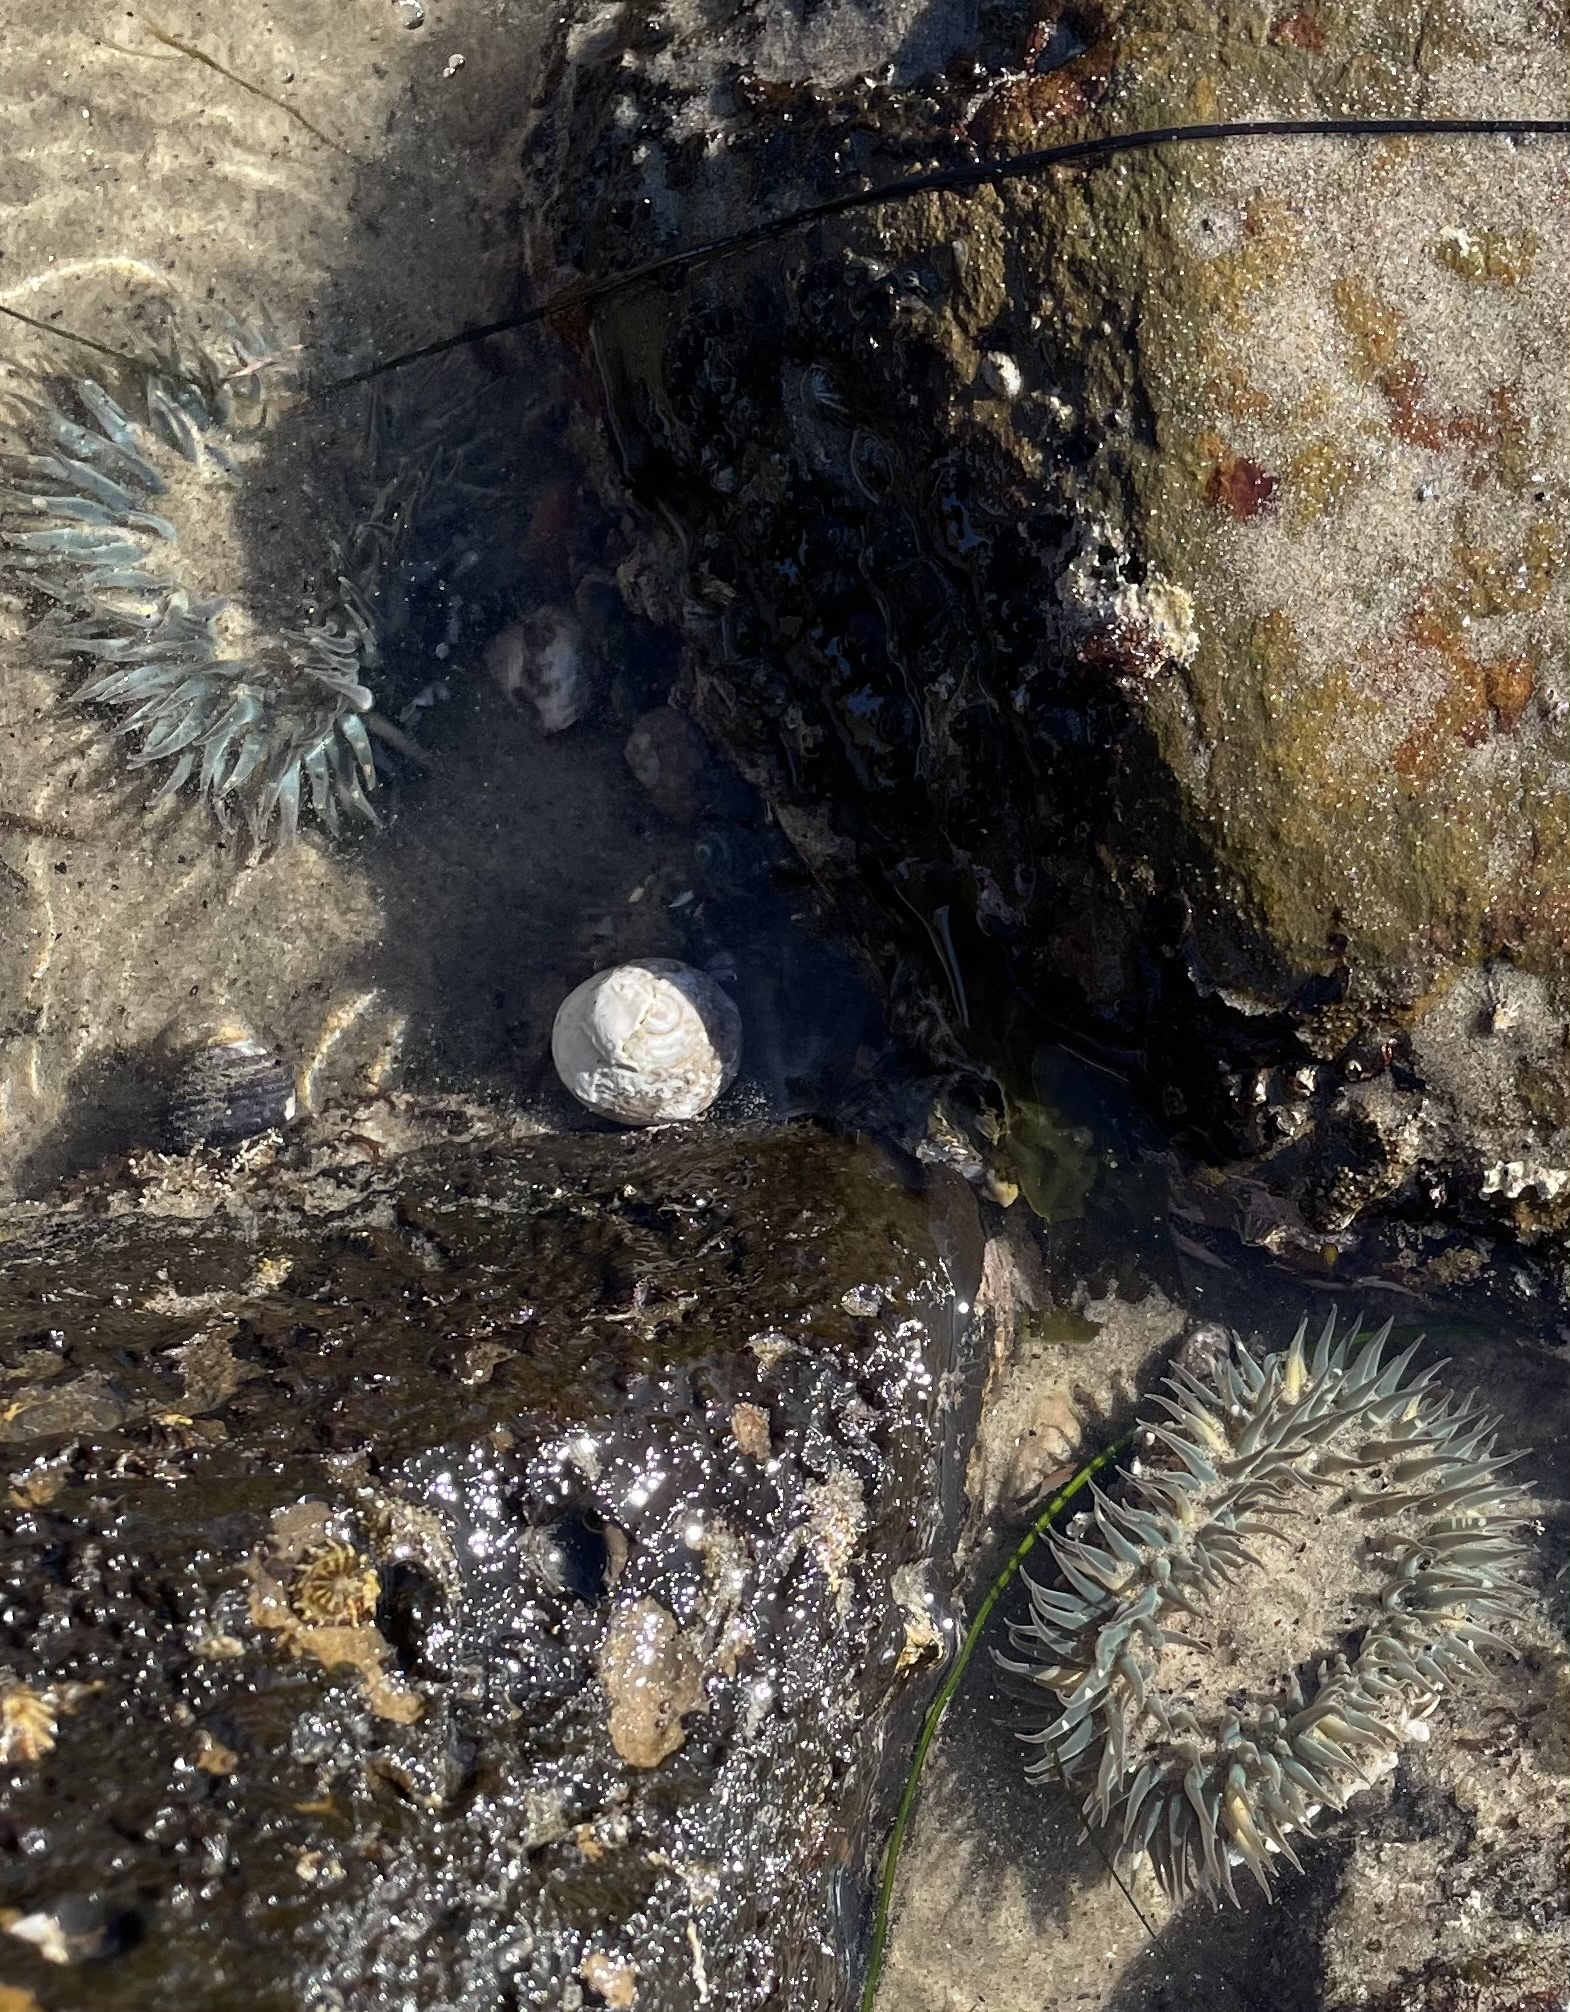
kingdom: Animalia
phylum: Cnidaria
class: Anthozoa
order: Actiniaria
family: Actiniidae
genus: Anthopleura
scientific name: Anthopleura sola
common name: Sun anemone
